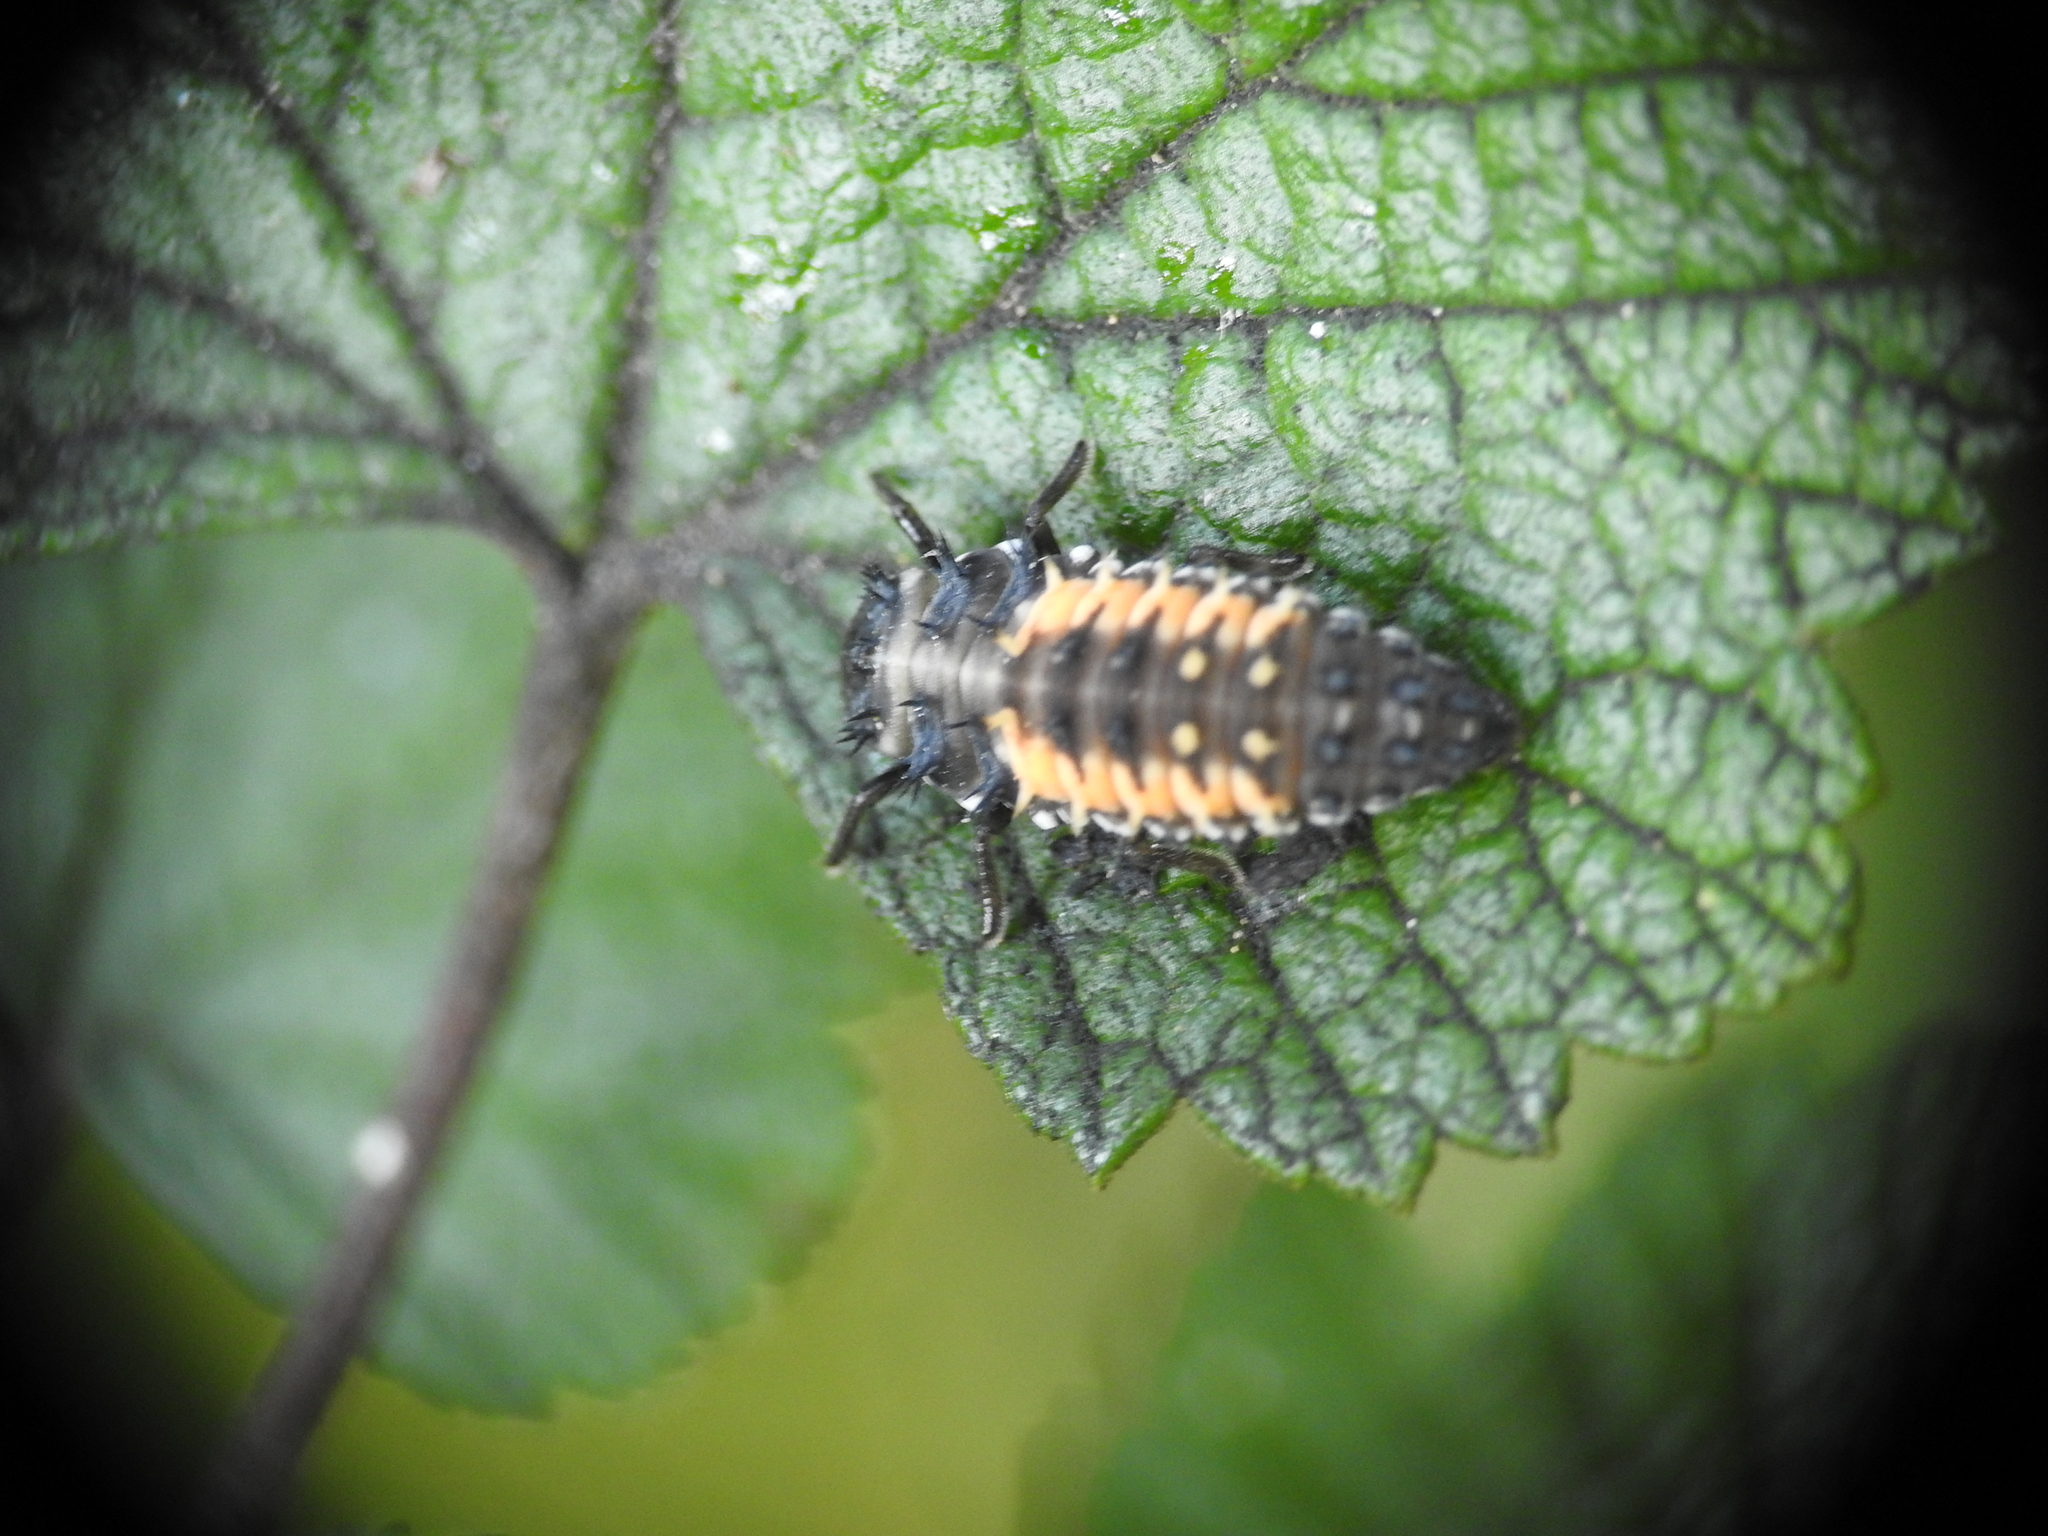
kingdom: Animalia
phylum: Arthropoda
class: Insecta
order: Coleoptera
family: Coccinellidae
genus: Harmonia
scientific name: Harmonia axyridis
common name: Harlequin ladybird
